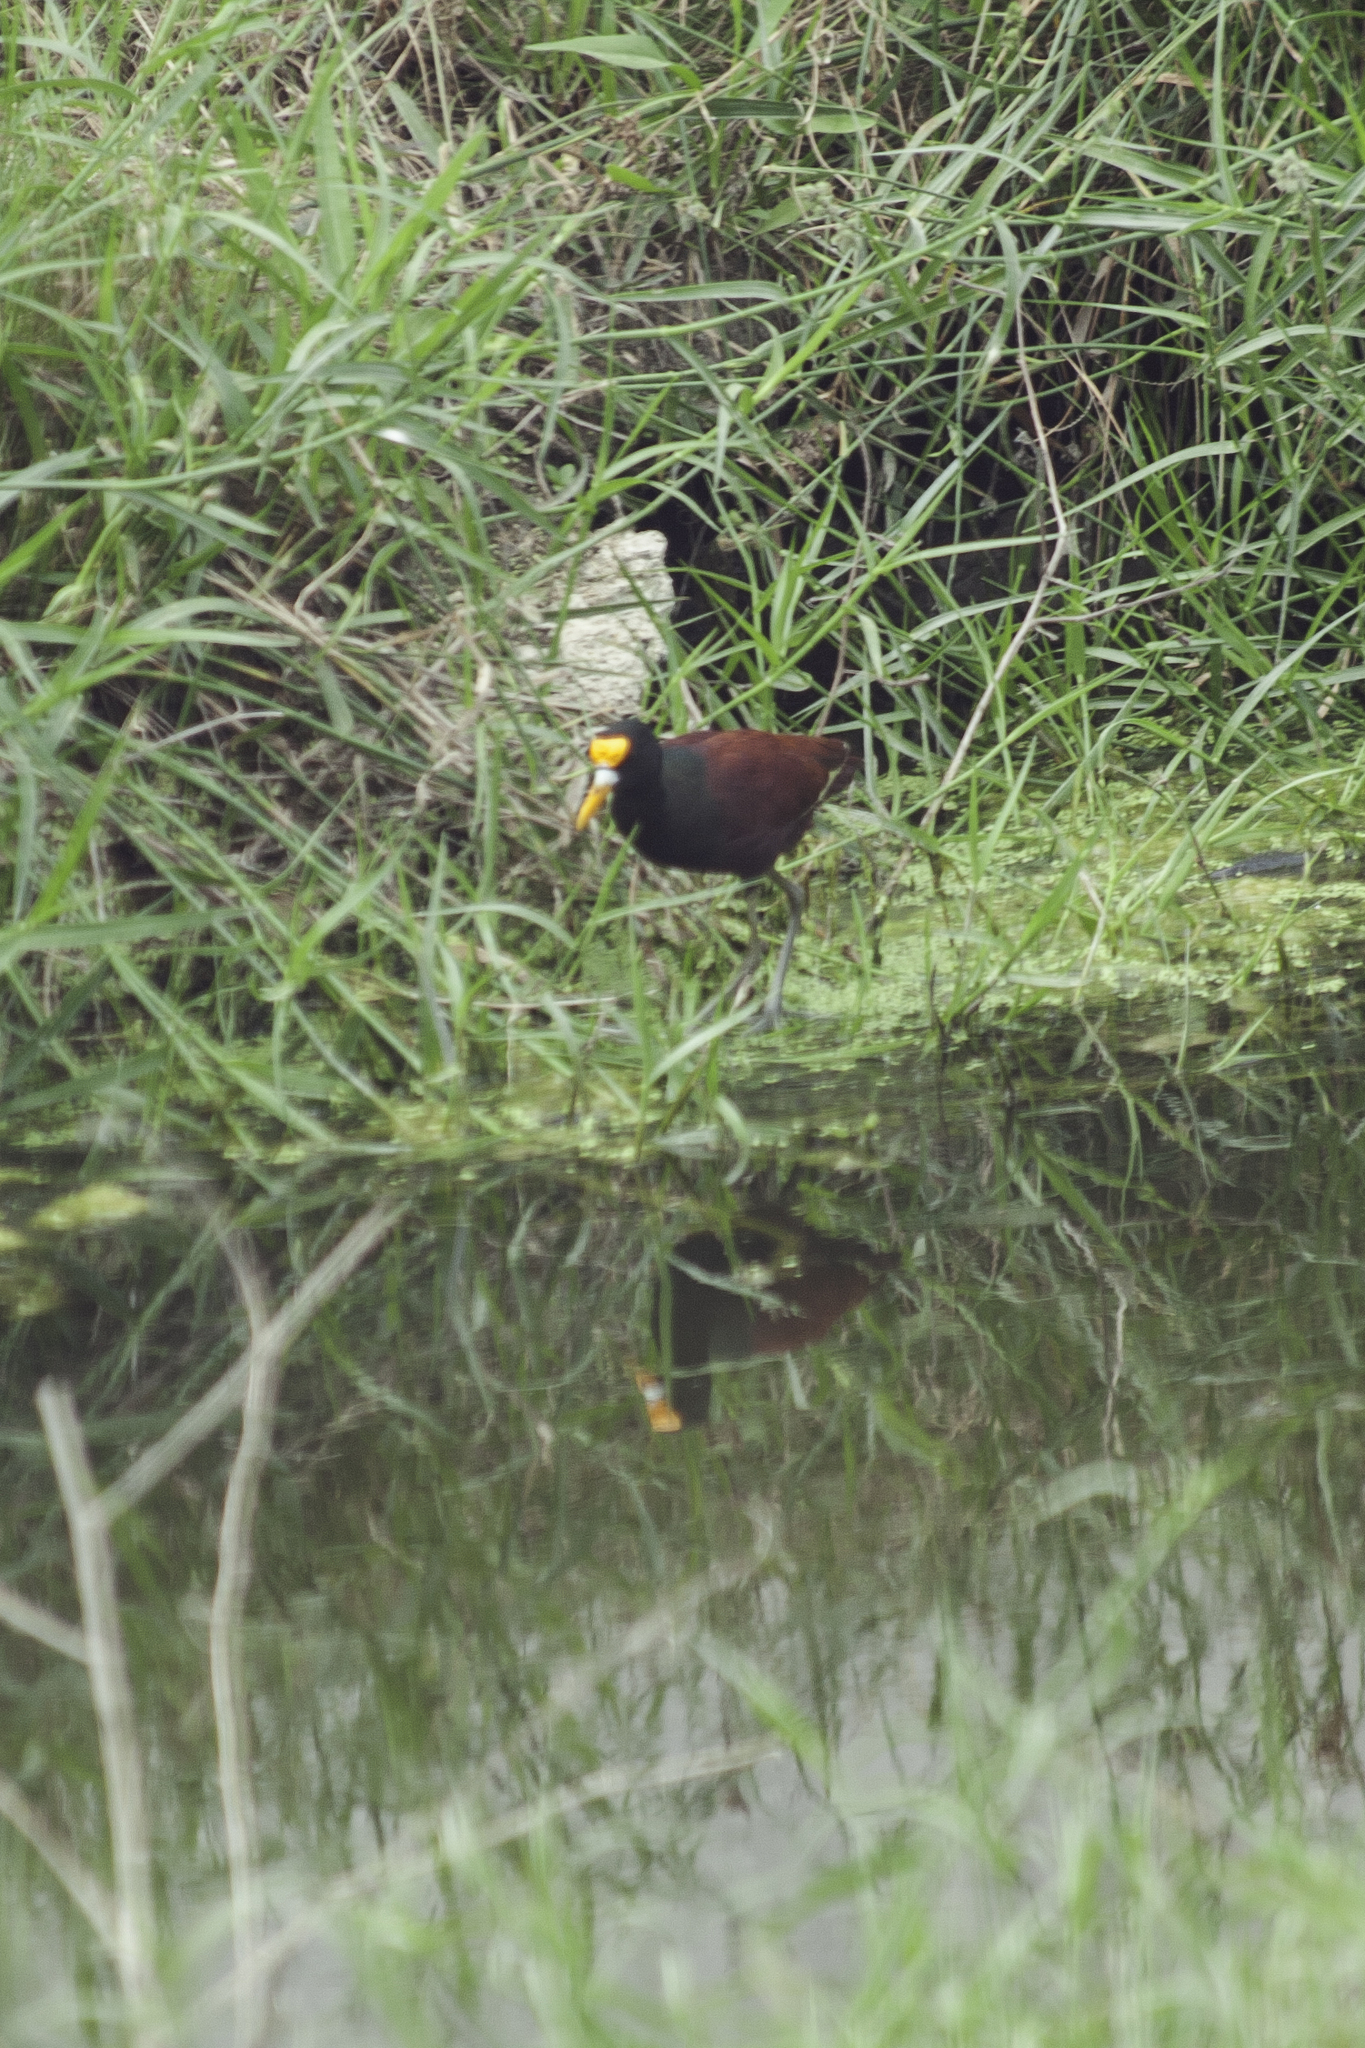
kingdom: Animalia
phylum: Chordata
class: Aves
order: Charadriiformes
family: Jacanidae
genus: Jacana
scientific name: Jacana spinosa
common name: Northern jacana
